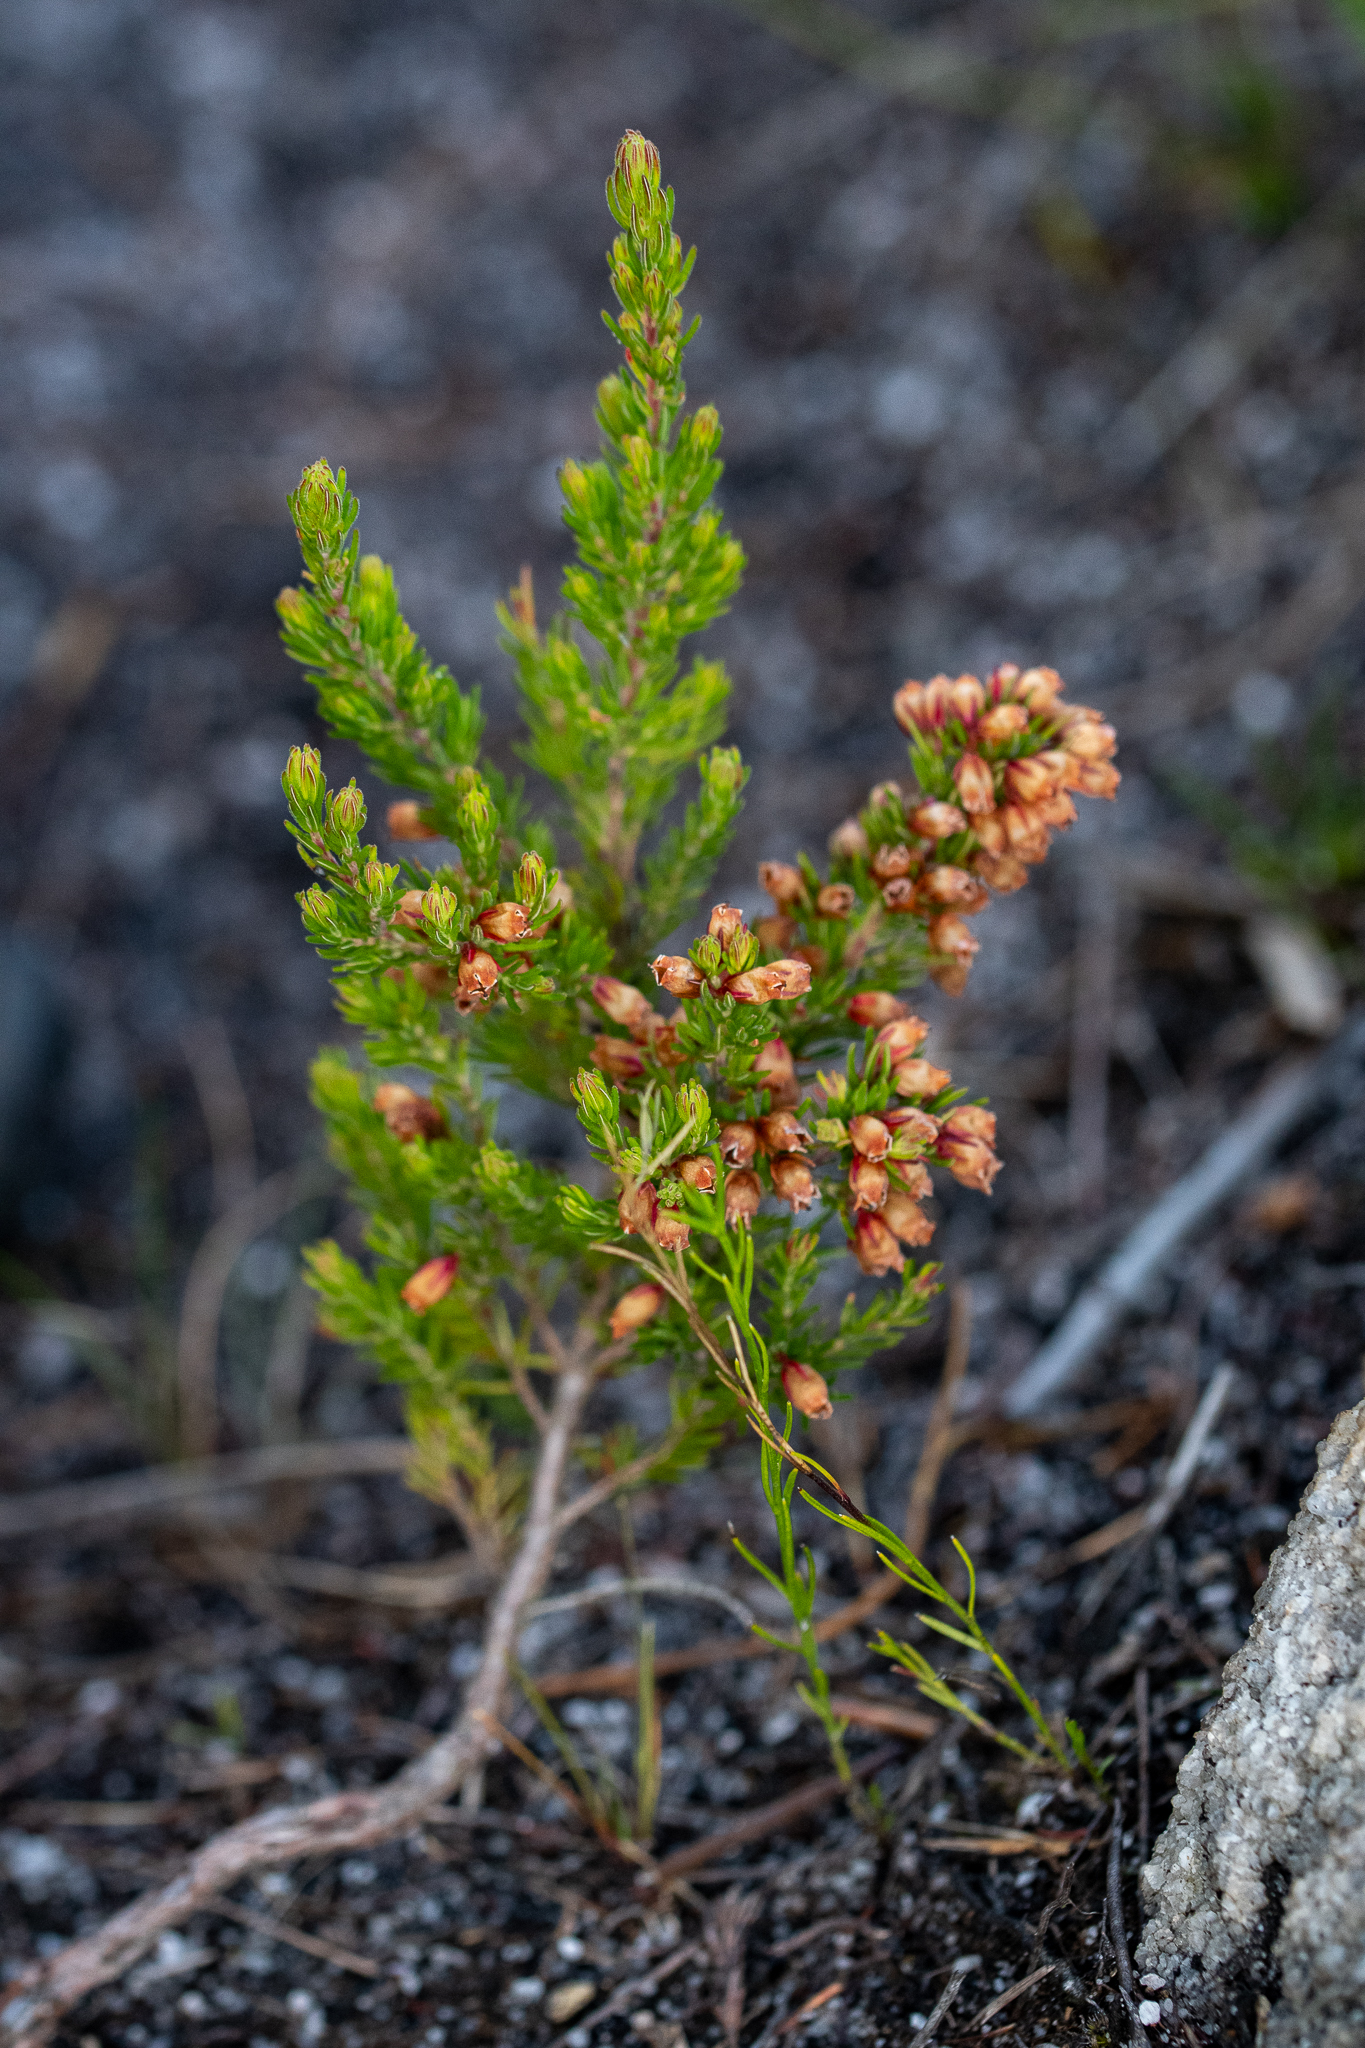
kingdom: Plantae
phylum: Tracheophyta
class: Magnoliopsida
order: Ericales
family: Ericaceae
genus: Erica
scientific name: Erica tenella
